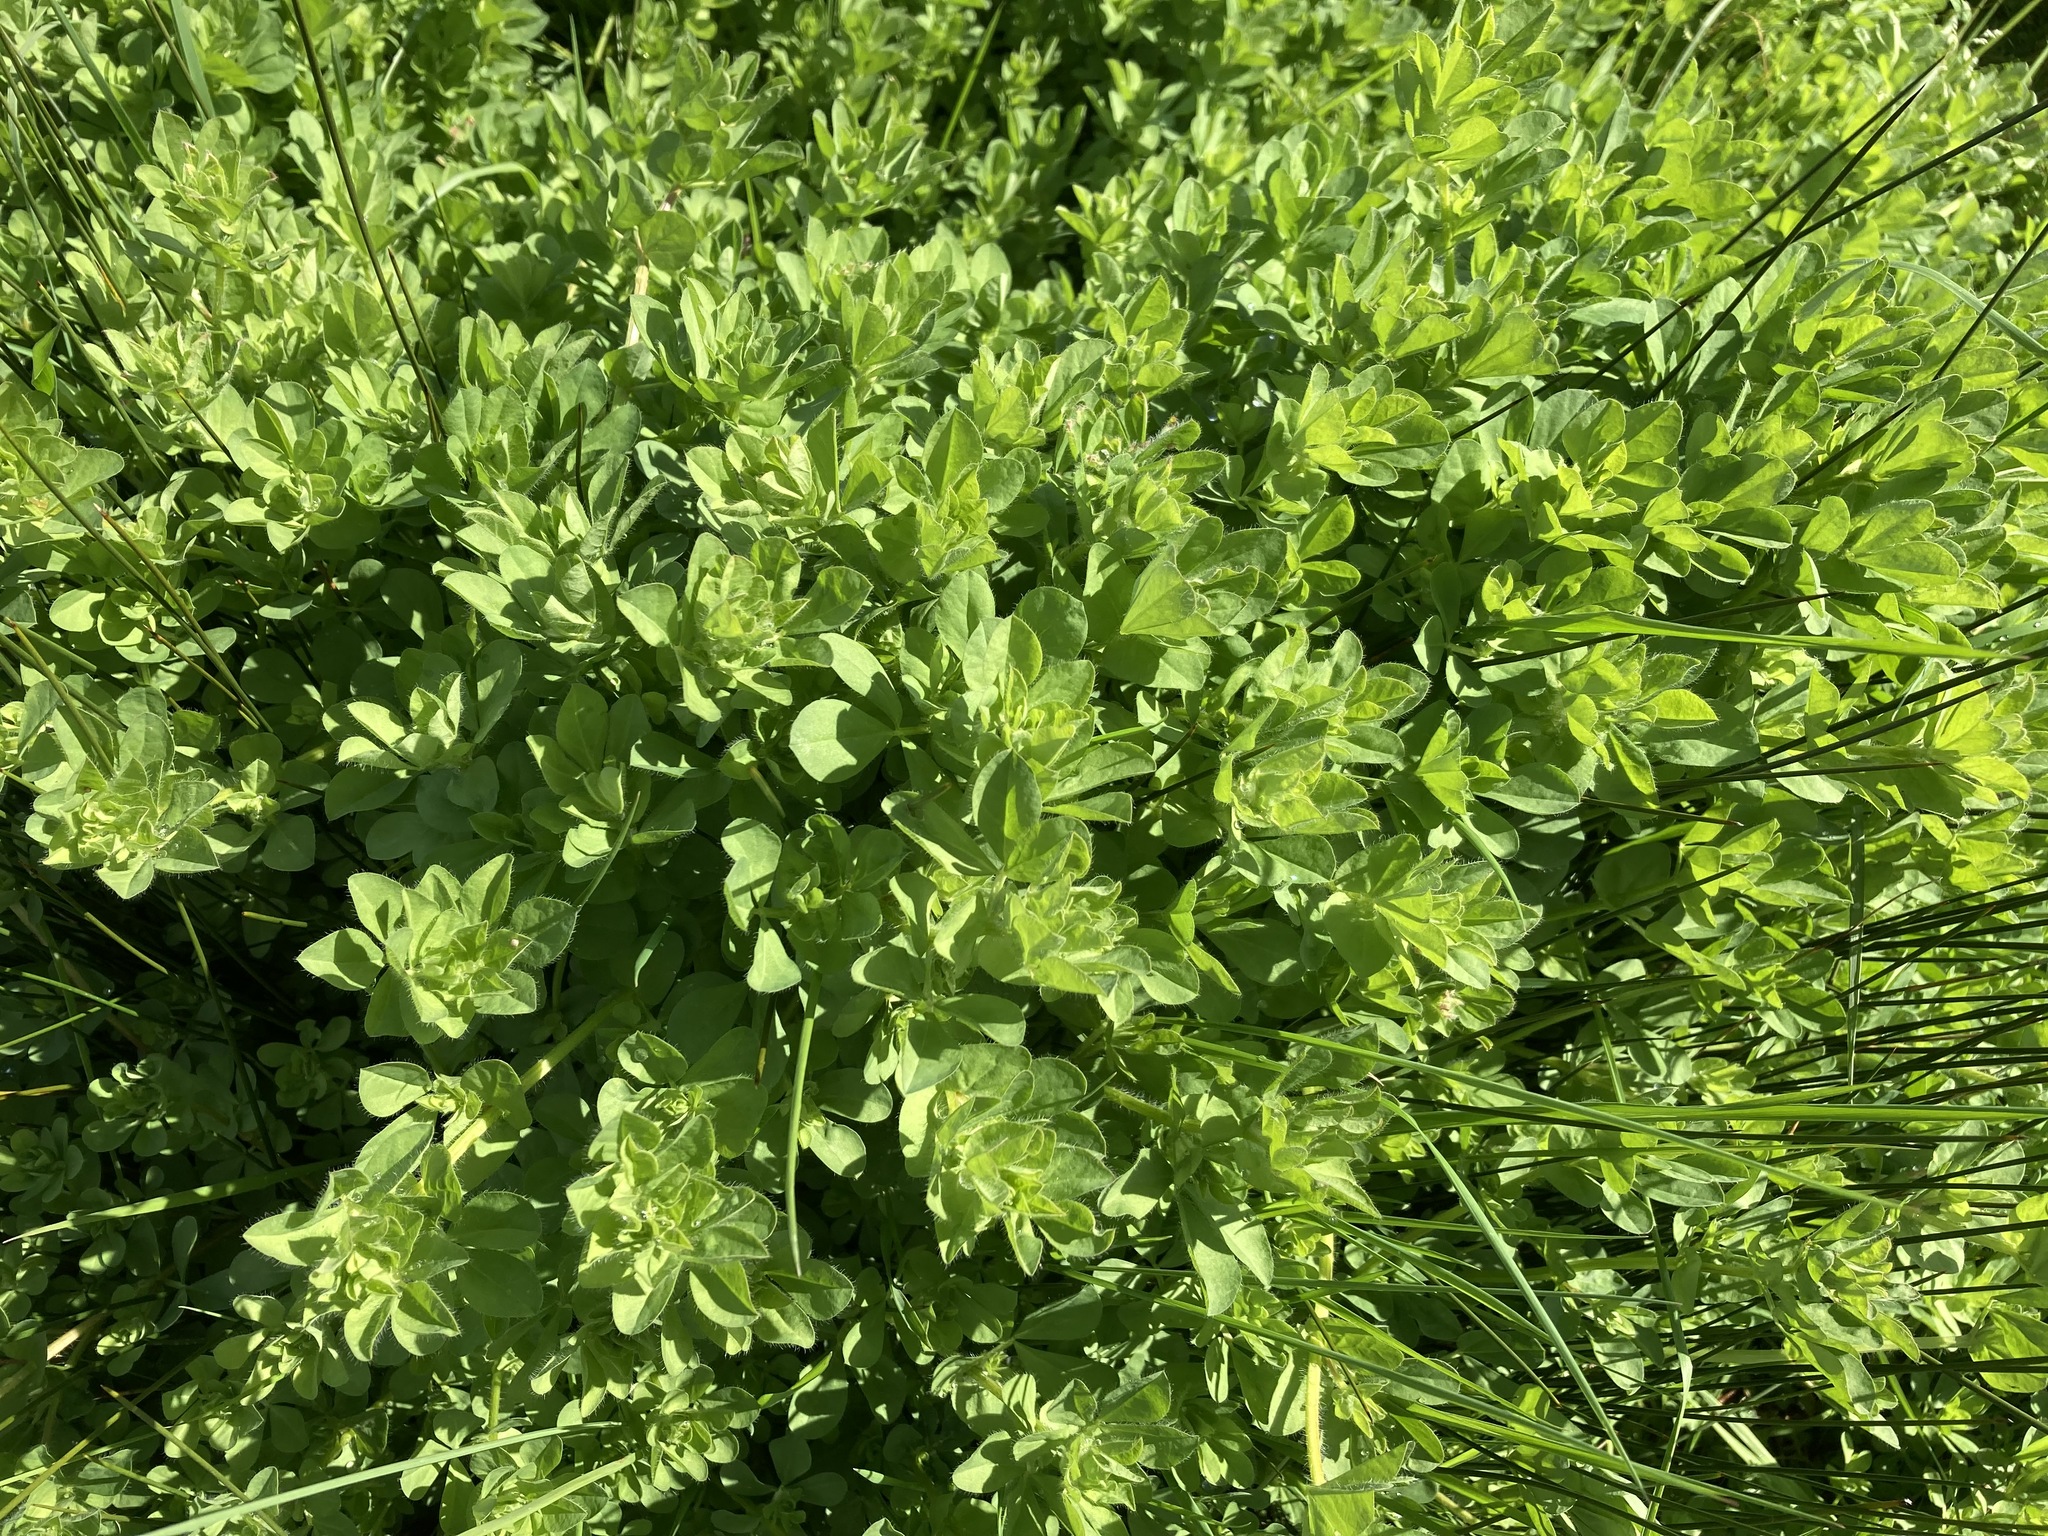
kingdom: Plantae
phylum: Tracheophyta
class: Magnoliopsida
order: Fabales
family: Fabaceae
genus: Lotus
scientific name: Lotus pedunculatus
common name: Greater birdsfoot-trefoil
